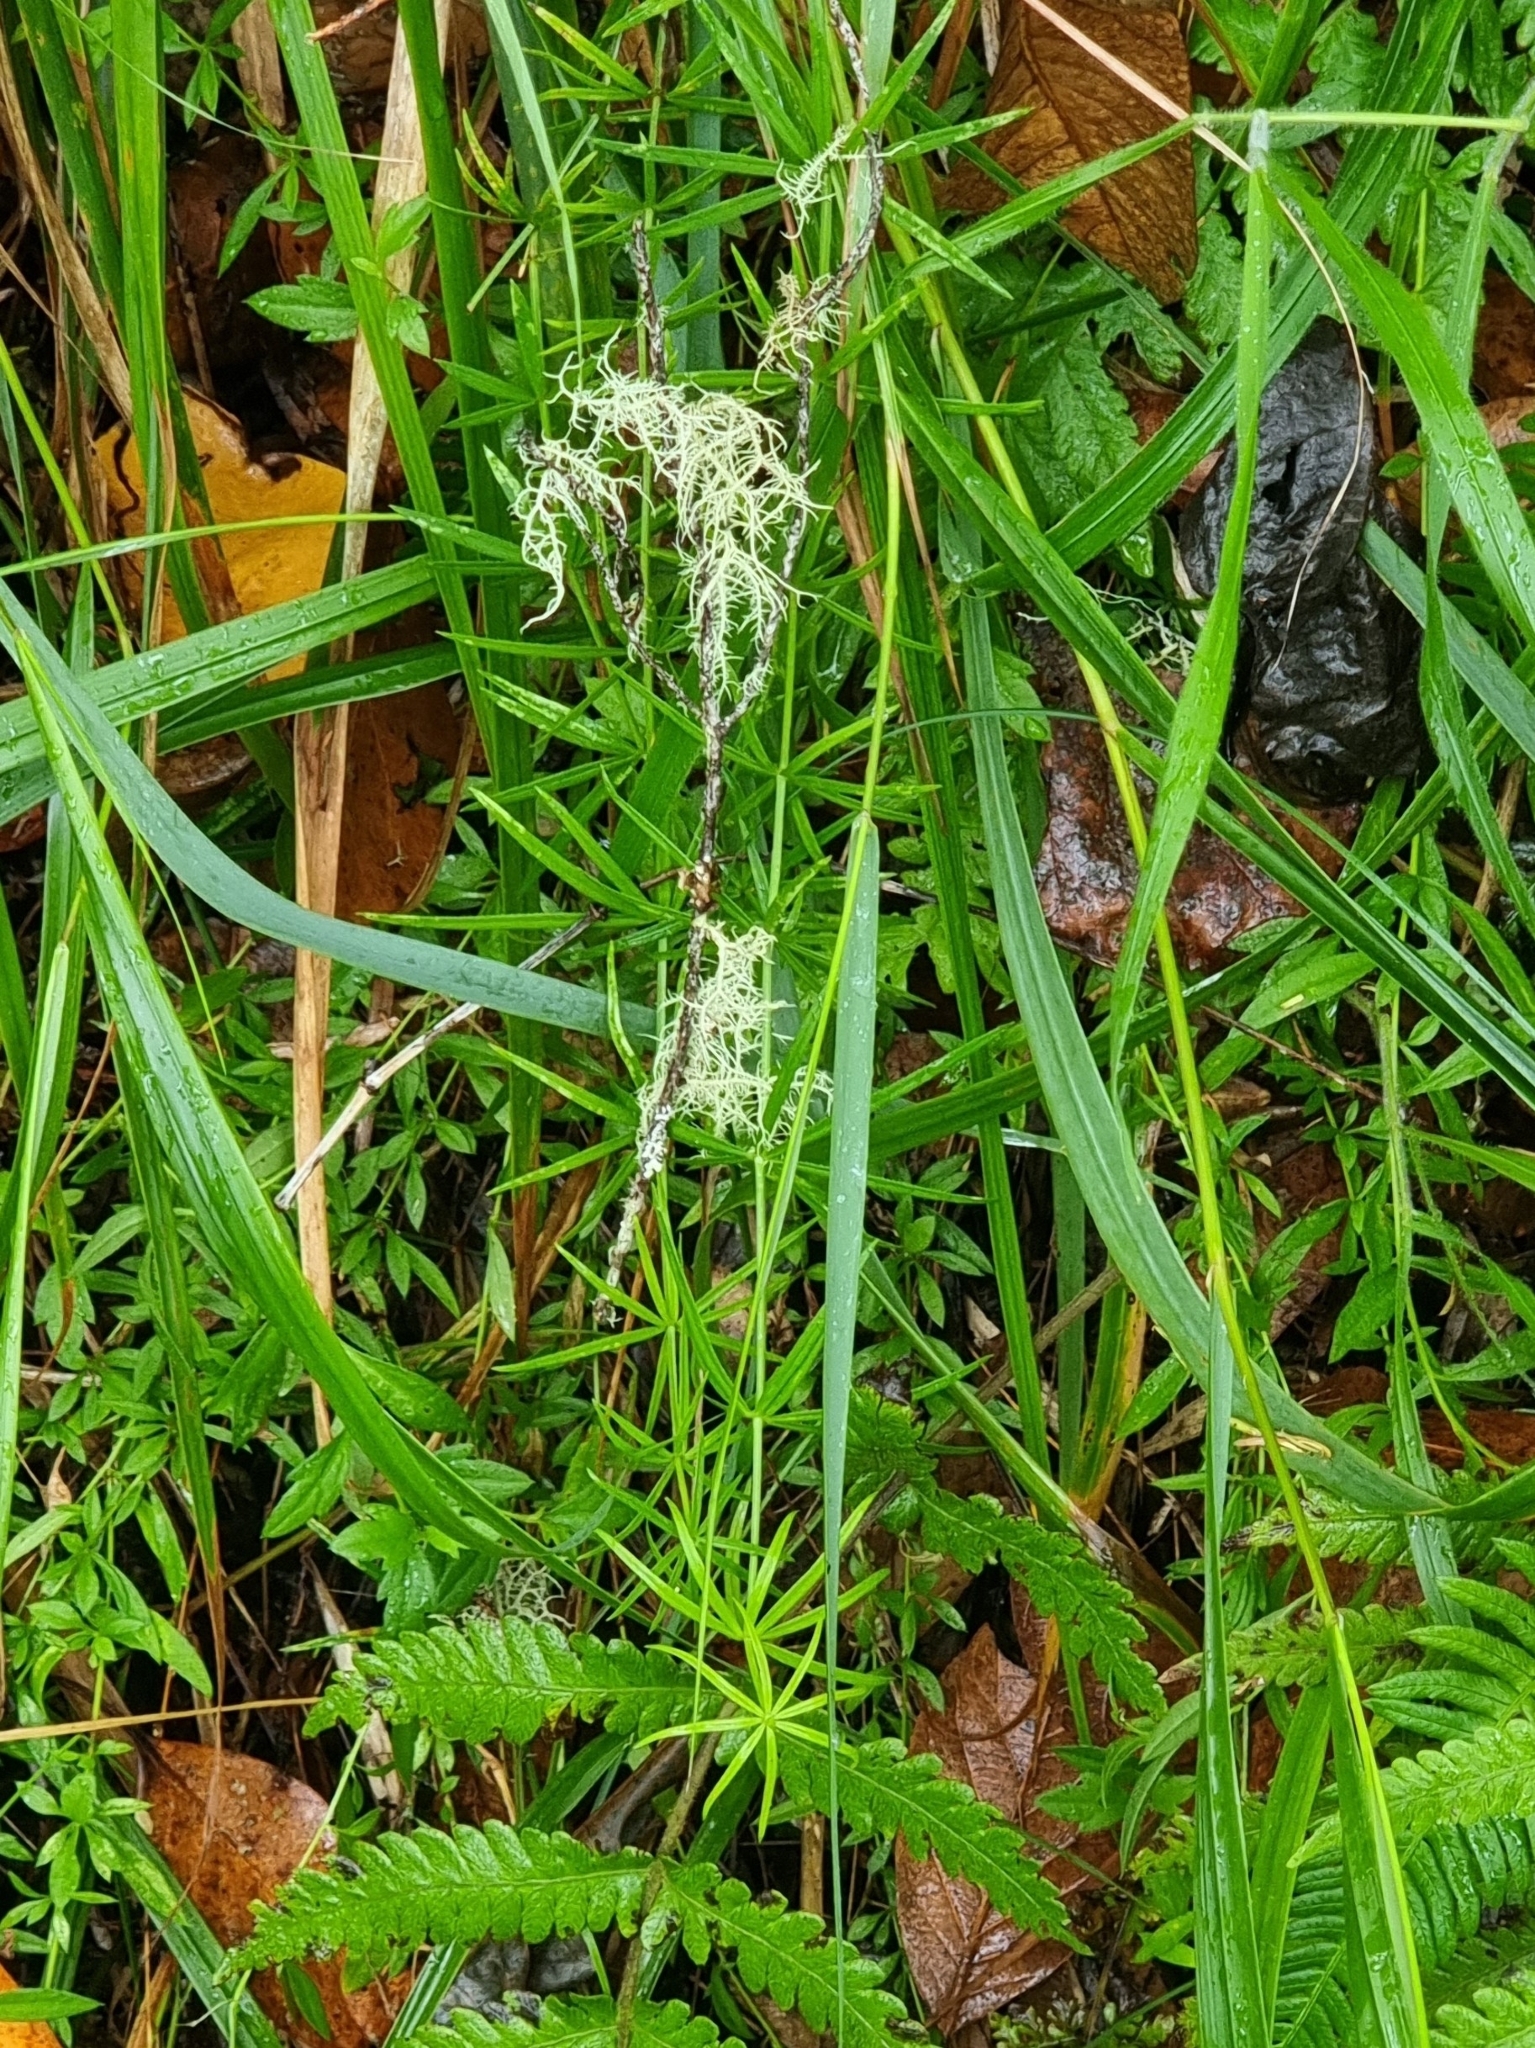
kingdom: Plantae
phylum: Tracheophyta
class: Magnoliopsida
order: Gentianales
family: Rubiaceae
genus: Rubia
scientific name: Rubia occidens
